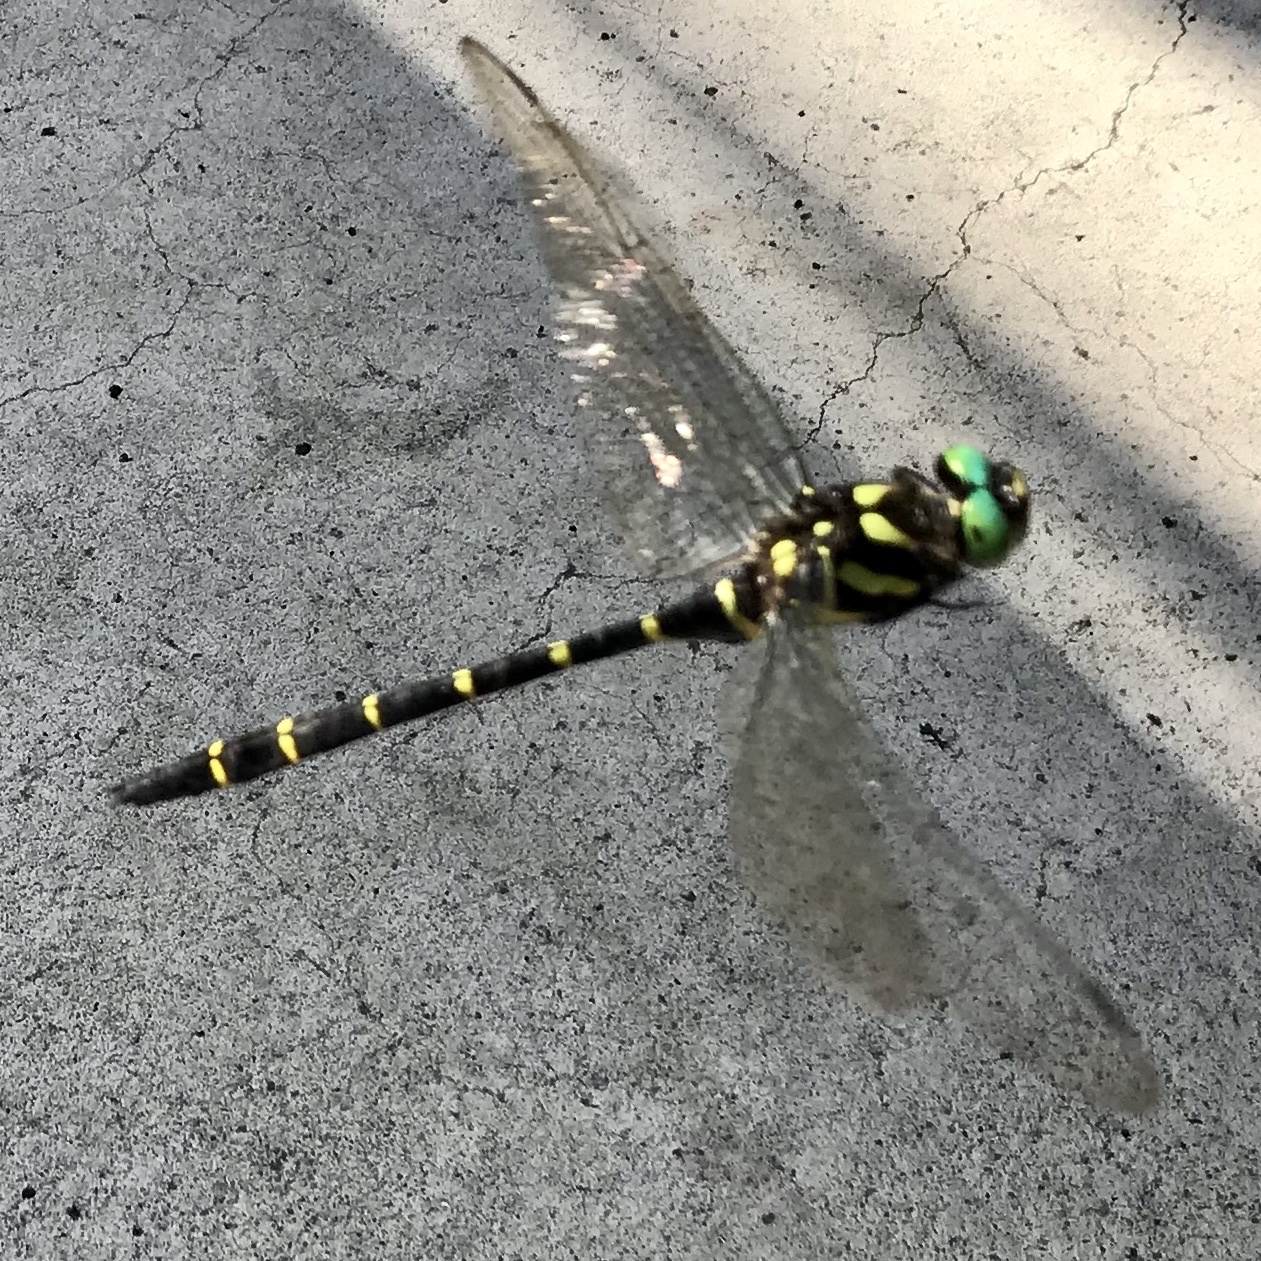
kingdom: Animalia
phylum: Arthropoda
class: Insecta
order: Odonata
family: Cordulegastridae
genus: Anotogaster
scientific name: Anotogaster sieboldii
